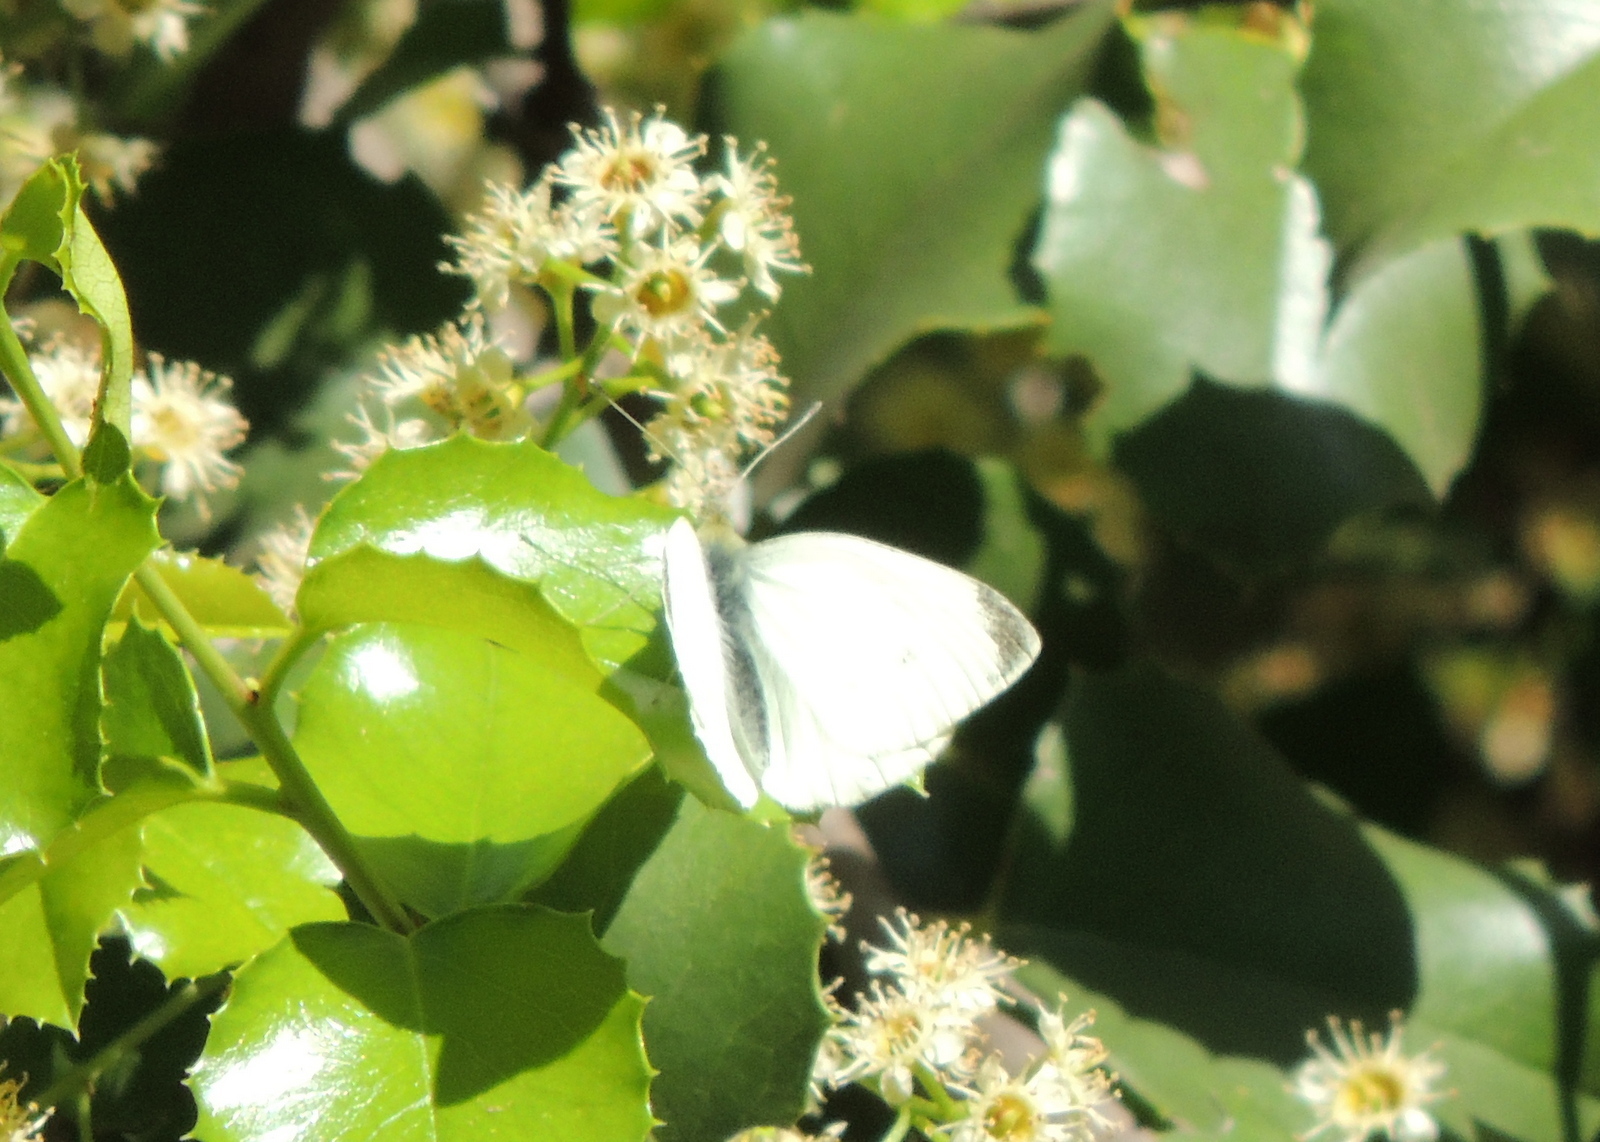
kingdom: Animalia
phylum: Arthropoda
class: Insecta
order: Lepidoptera
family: Pieridae
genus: Pieris
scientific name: Pieris rapae
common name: Small white
